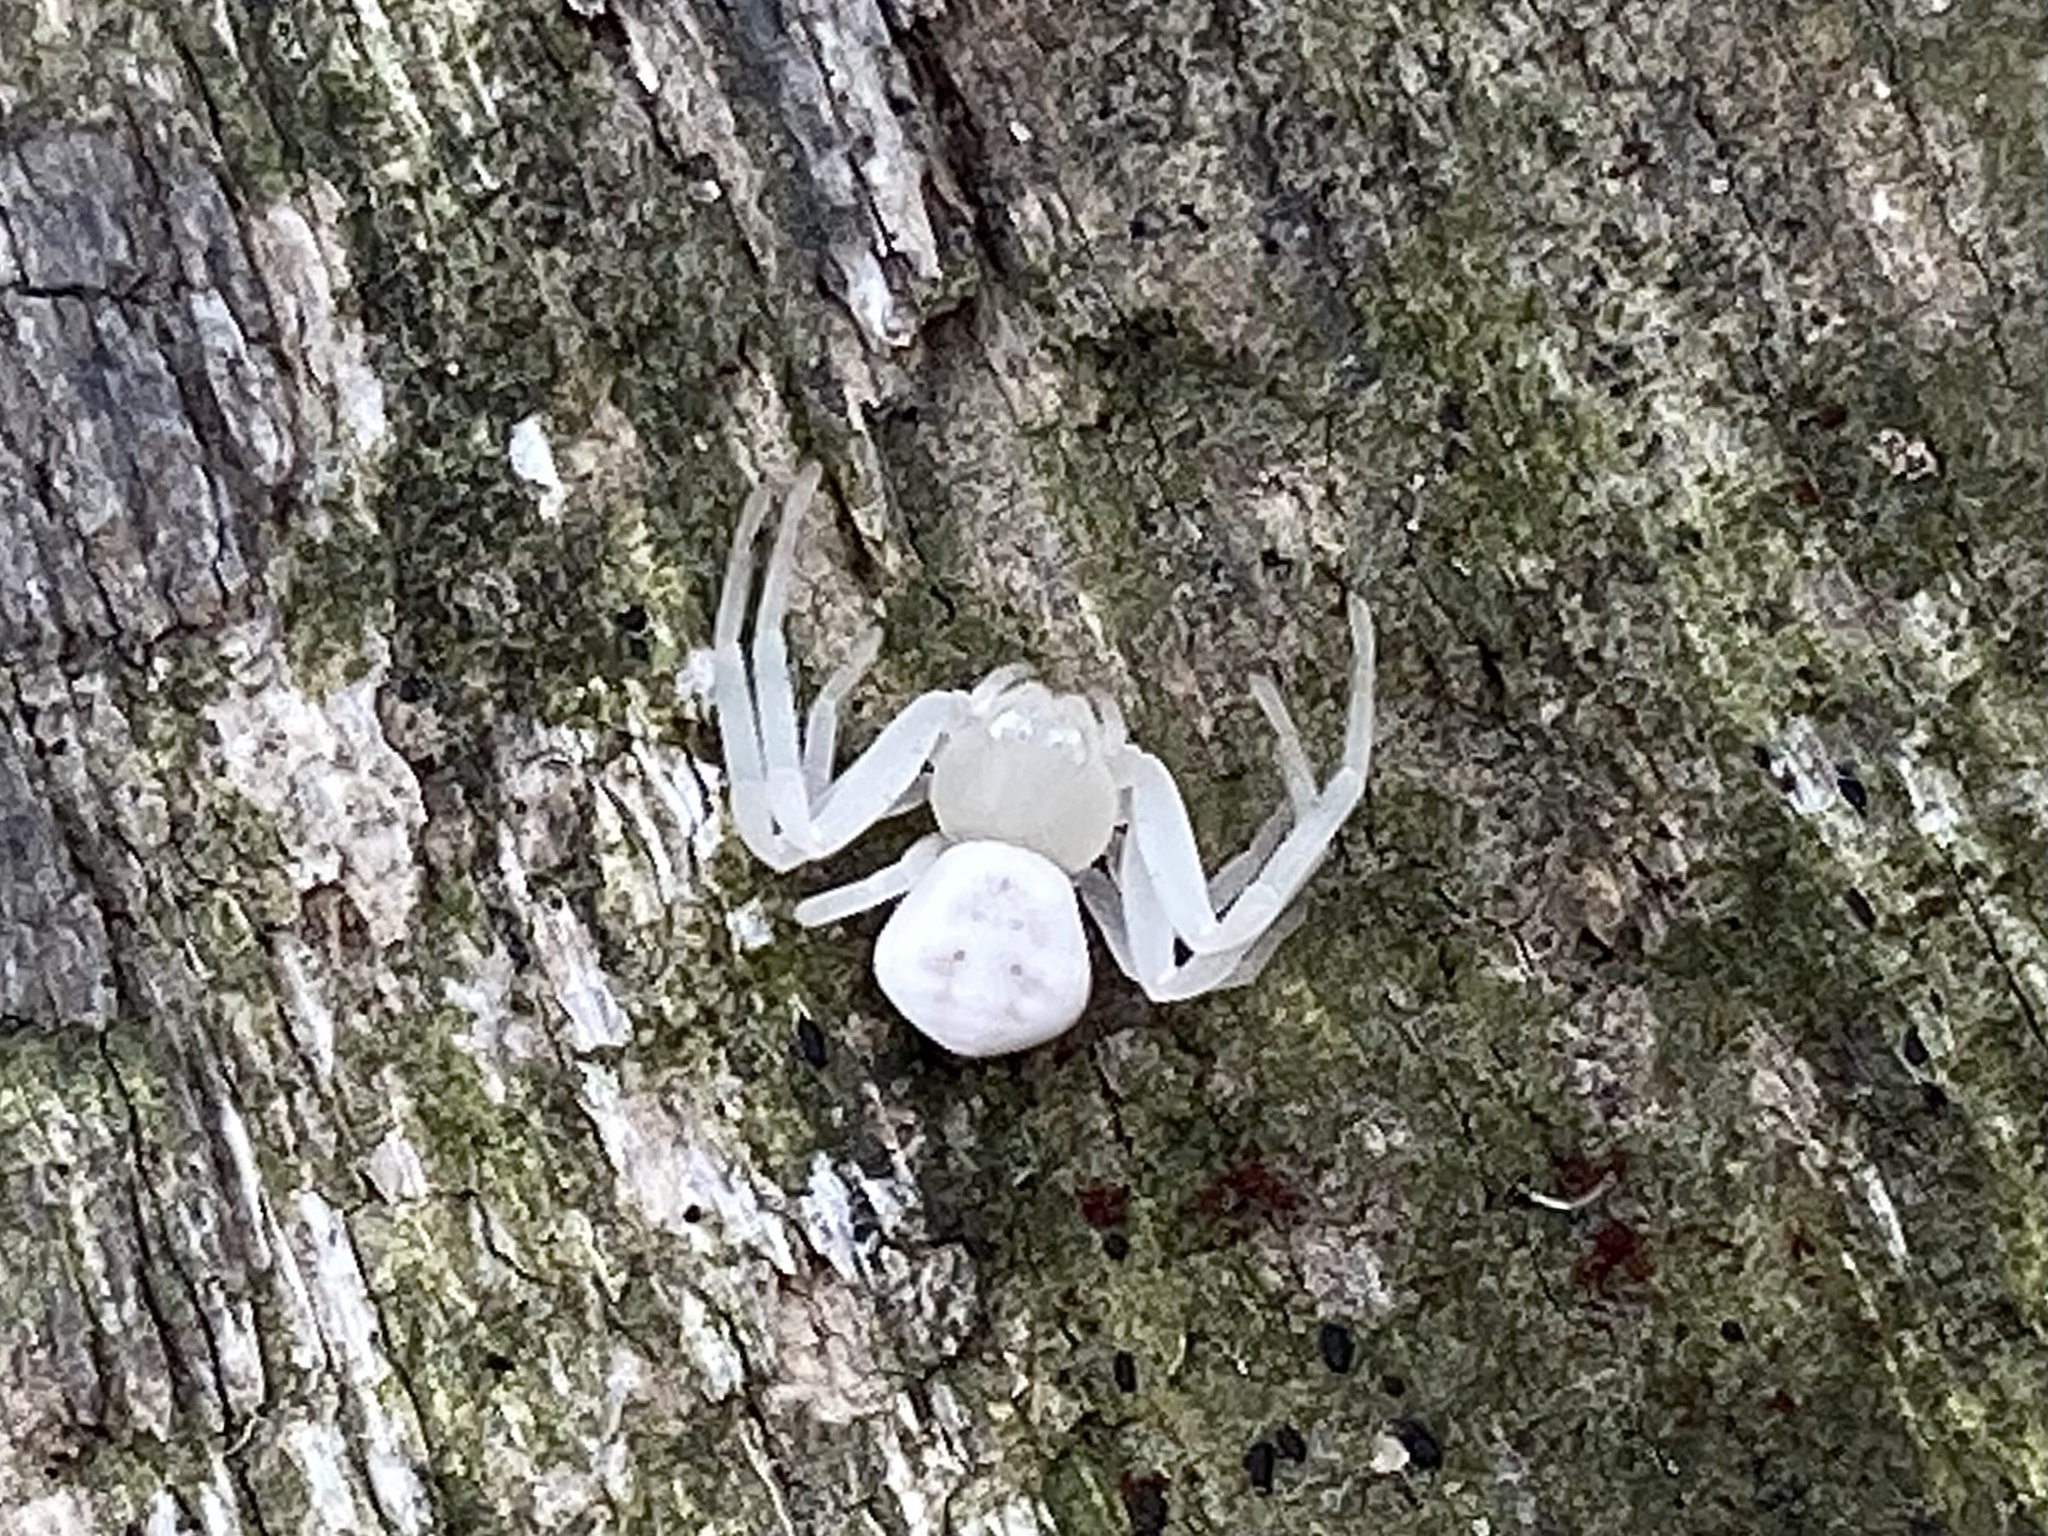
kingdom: Animalia
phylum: Arthropoda
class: Arachnida
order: Araneae
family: Thomisidae
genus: Zygometis
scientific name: Zygometis xanthogaster
